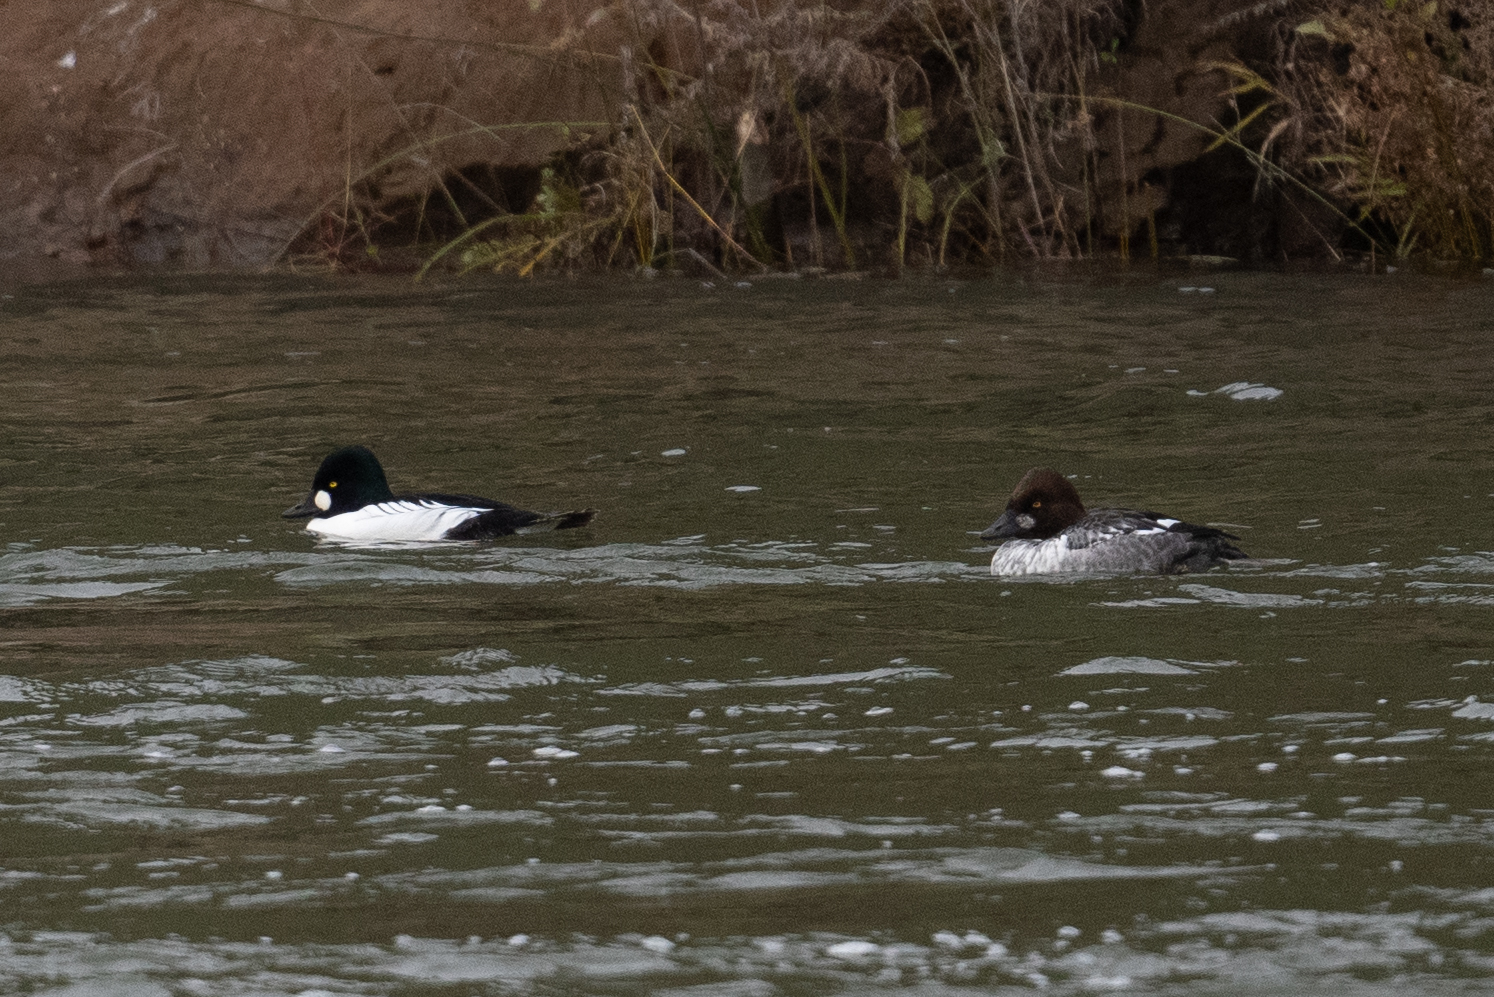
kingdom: Animalia
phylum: Chordata
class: Aves
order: Anseriformes
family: Anatidae
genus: Bucephala
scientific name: Bucephala clangula
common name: Common goldeneye
